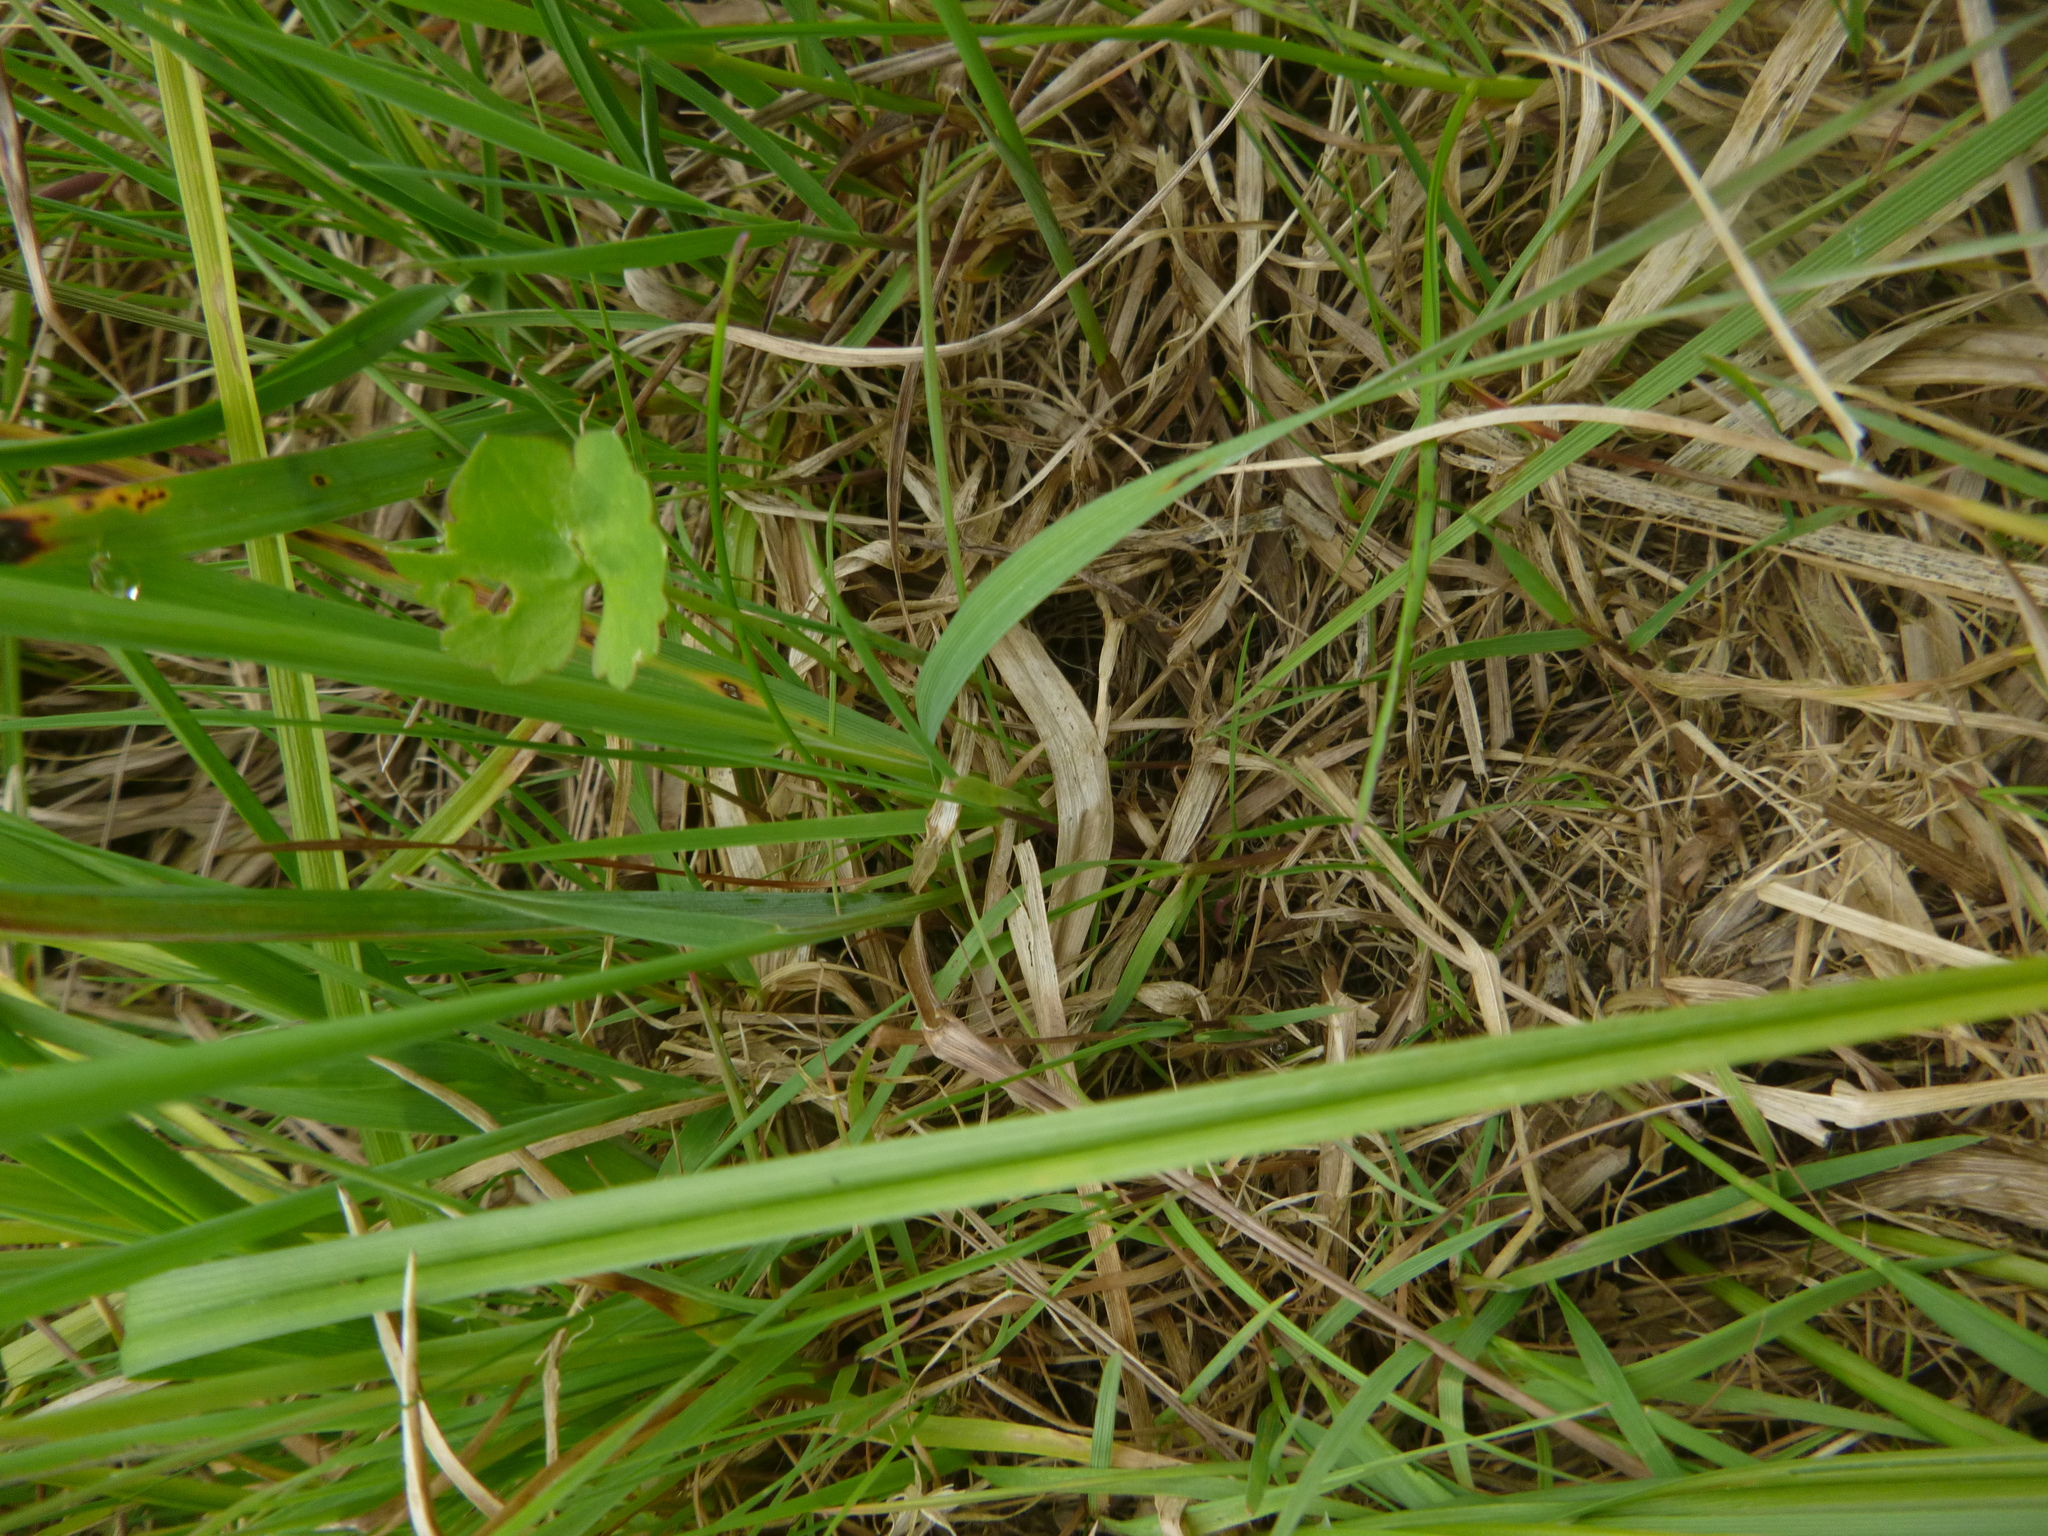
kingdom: Plantae
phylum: Tracheophyta
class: Liliopsida
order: Poales
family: Poaceae
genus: Alopecurus
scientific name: Alopecurus pratensis
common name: Meadow foxtail
